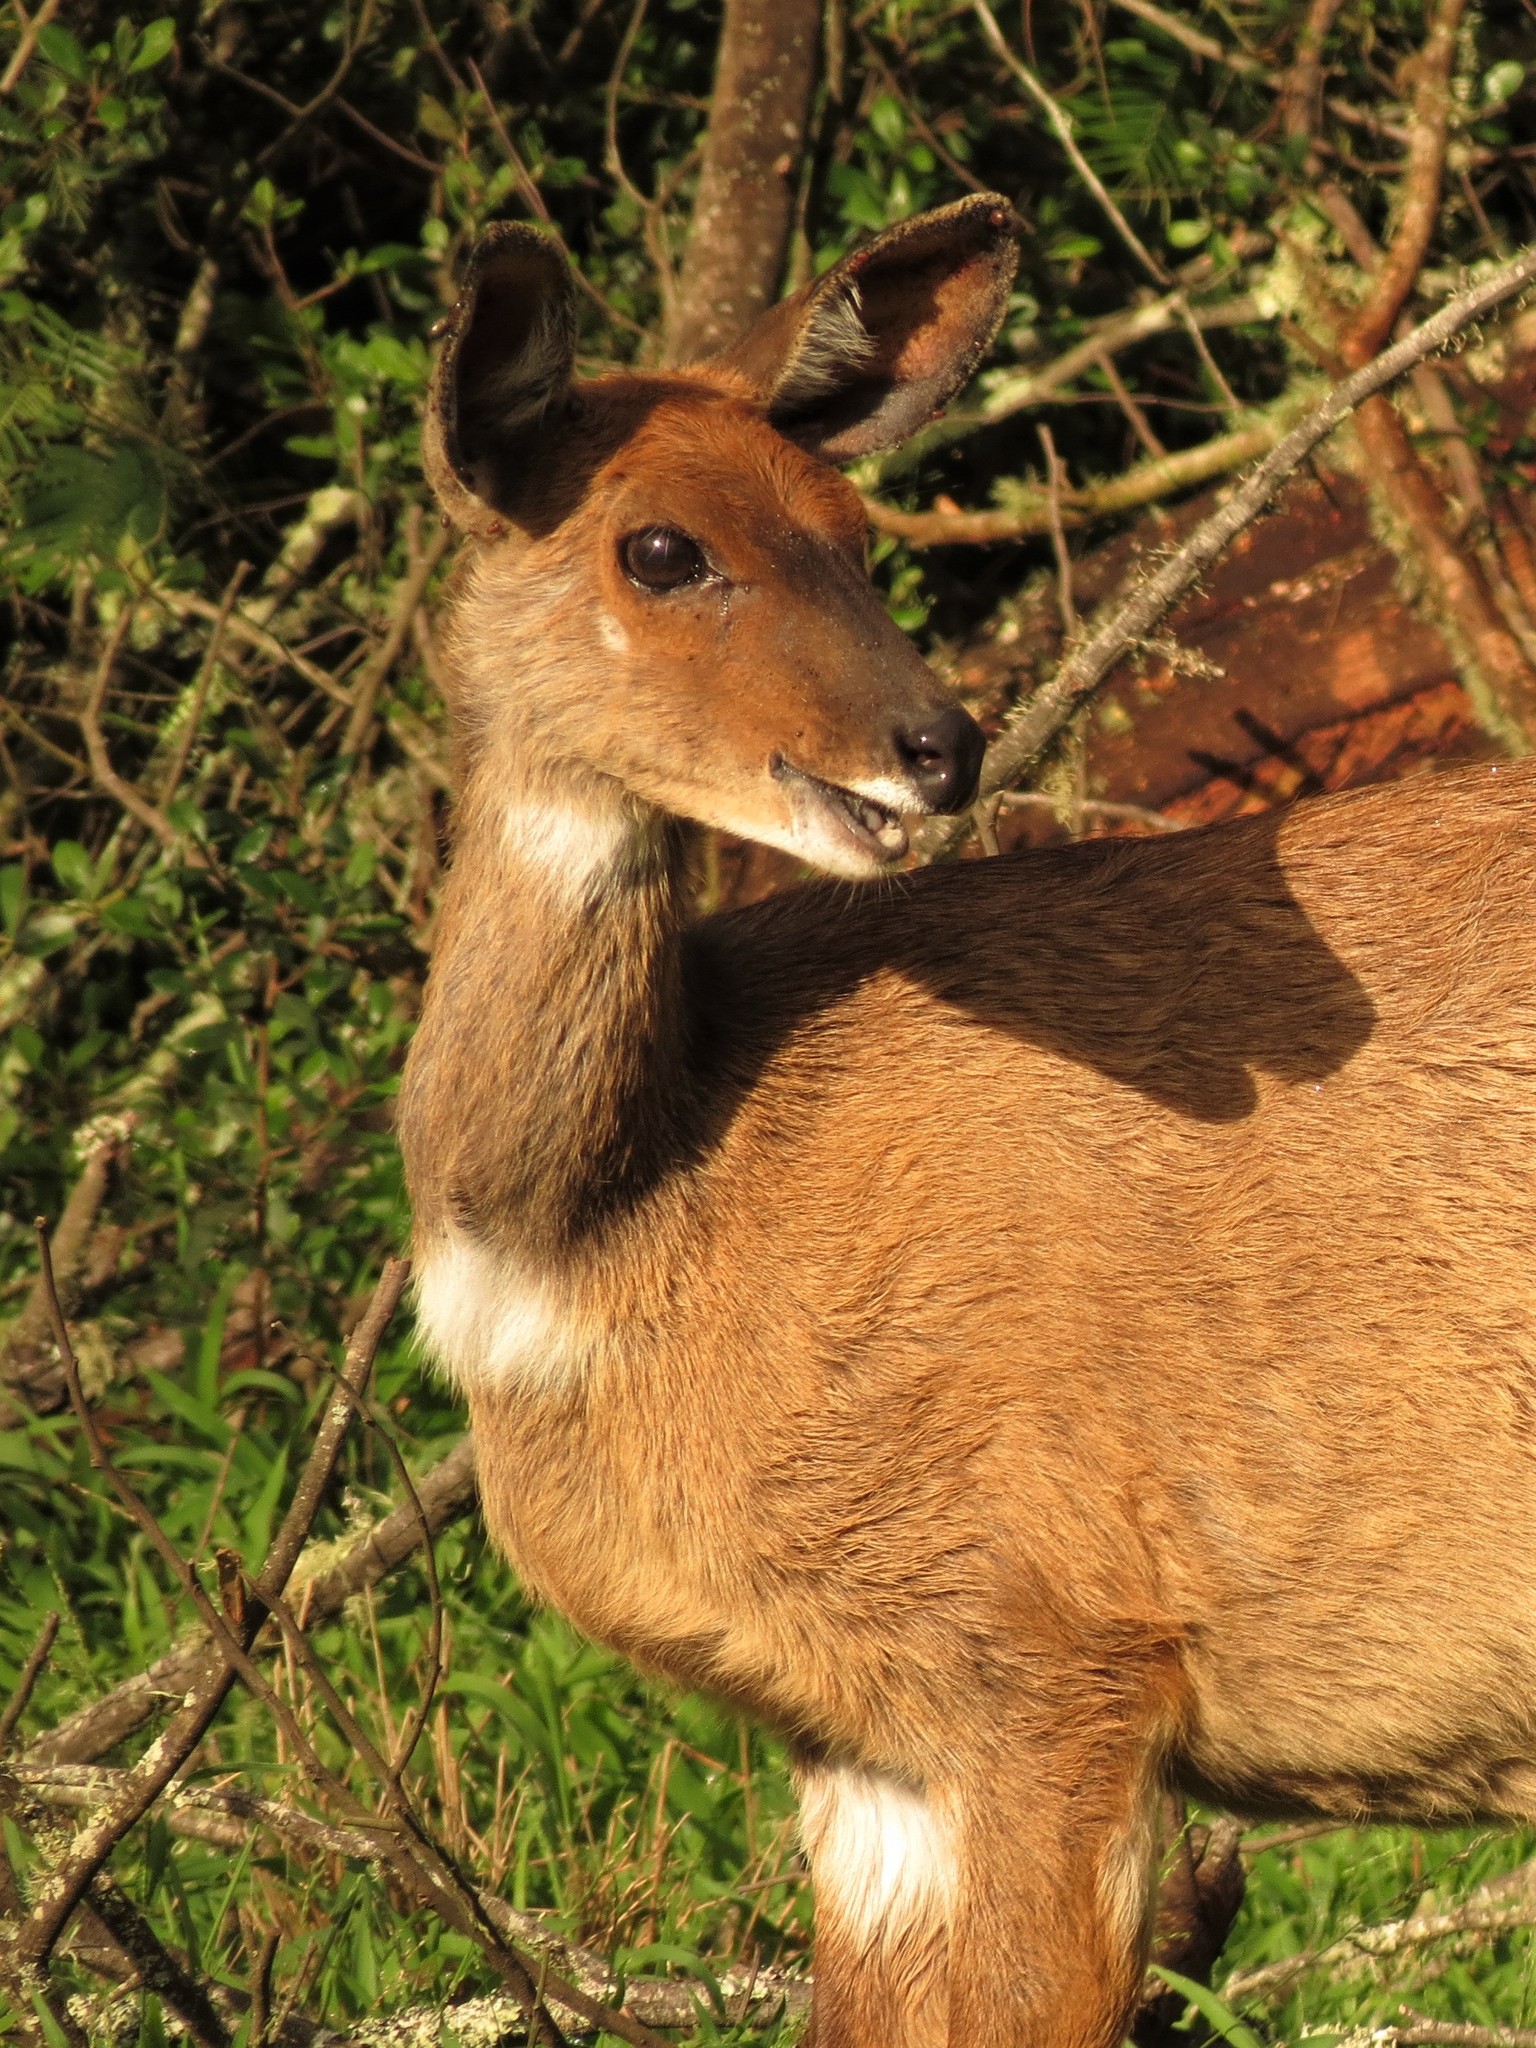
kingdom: Animalia
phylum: Chordata
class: Mammalia
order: Artiodactyla
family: Bovidae
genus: Tragelaphus
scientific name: Tragelaphus scriptus
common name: Bushbuck
